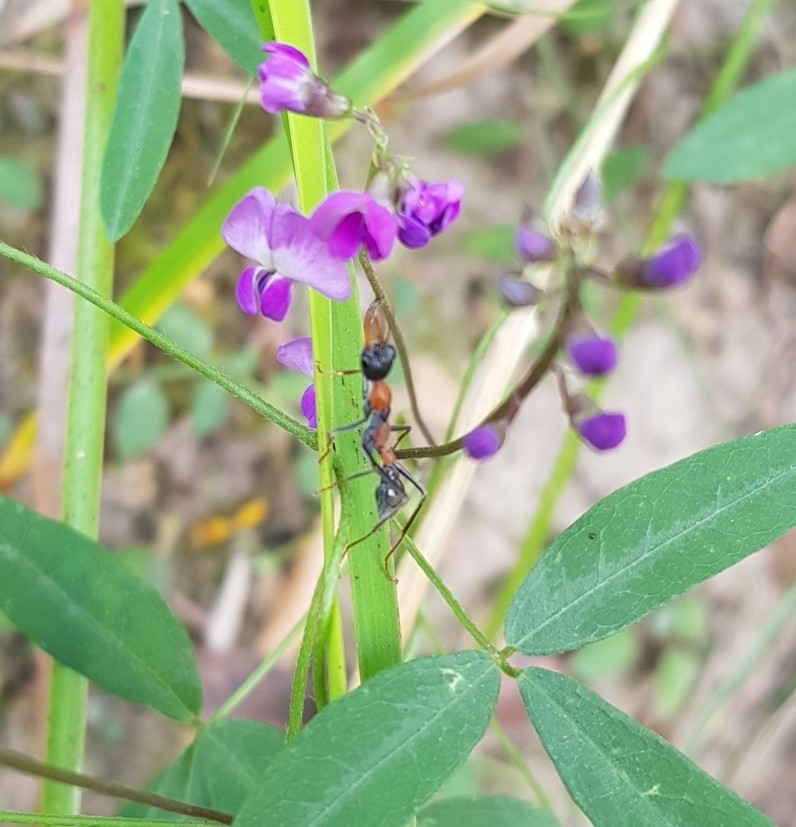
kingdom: Animalia
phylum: Arthropoda
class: Insecta
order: Hymenoptera
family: Formicidae
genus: Myrmecia
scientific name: Myrmecia nigrocincta
